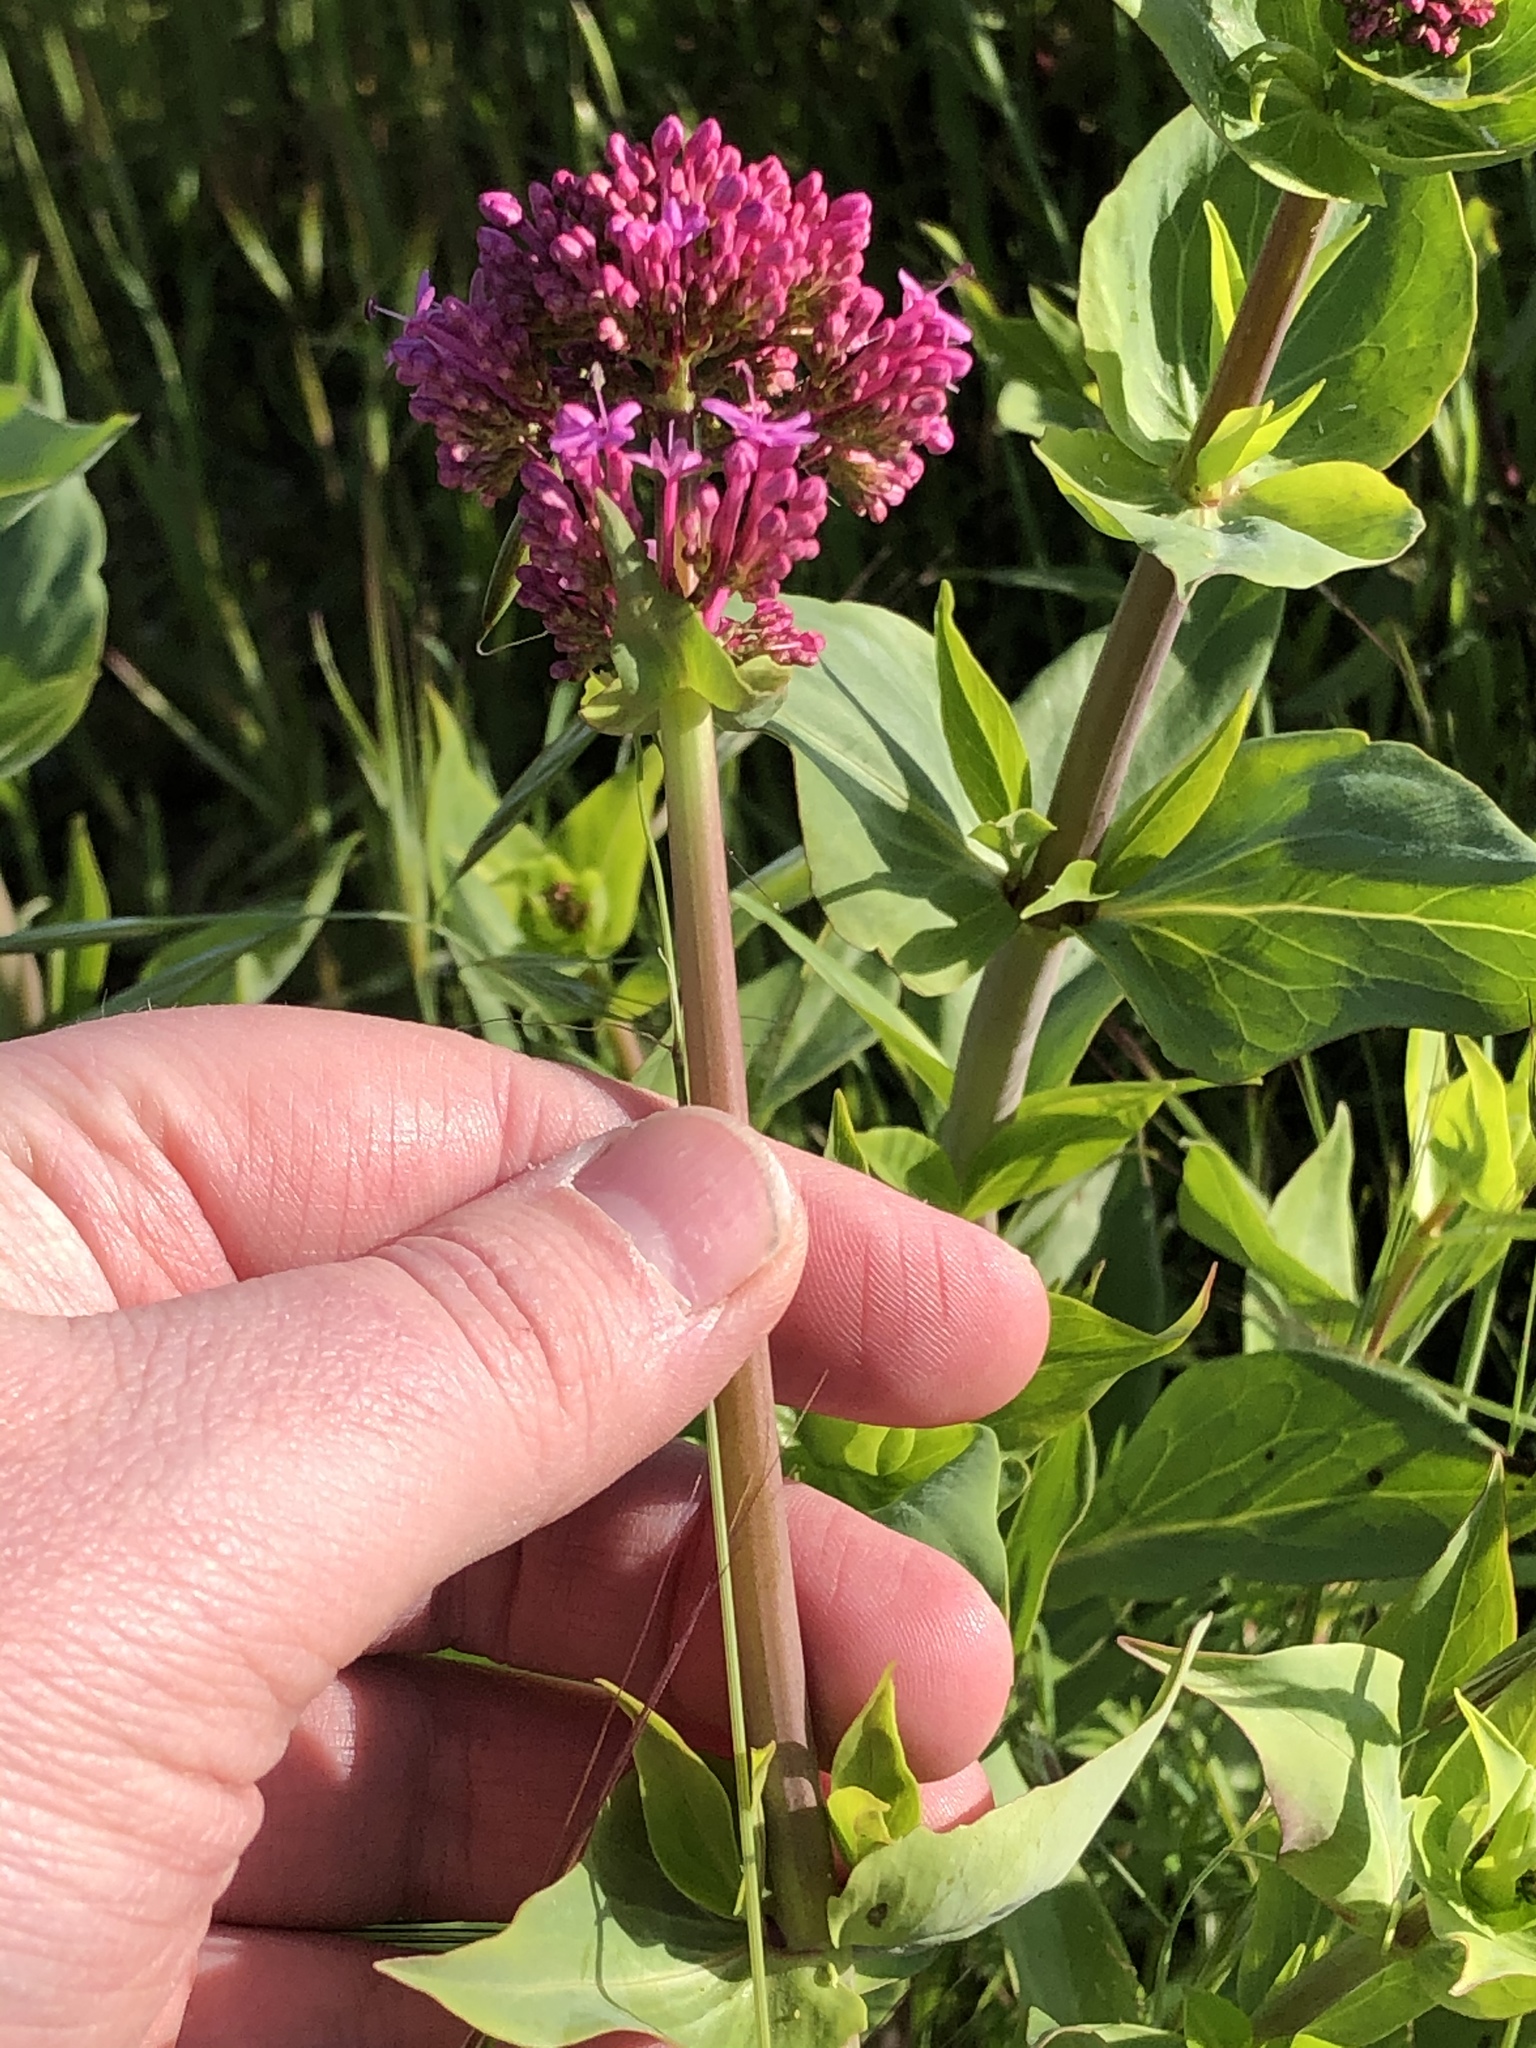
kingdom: Plantae
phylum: Tracheophyta
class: Magnoliopsida
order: Dipsacales
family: Caprifoliaceae
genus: Centranthus
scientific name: Centranthus ruber
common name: Red valerian
